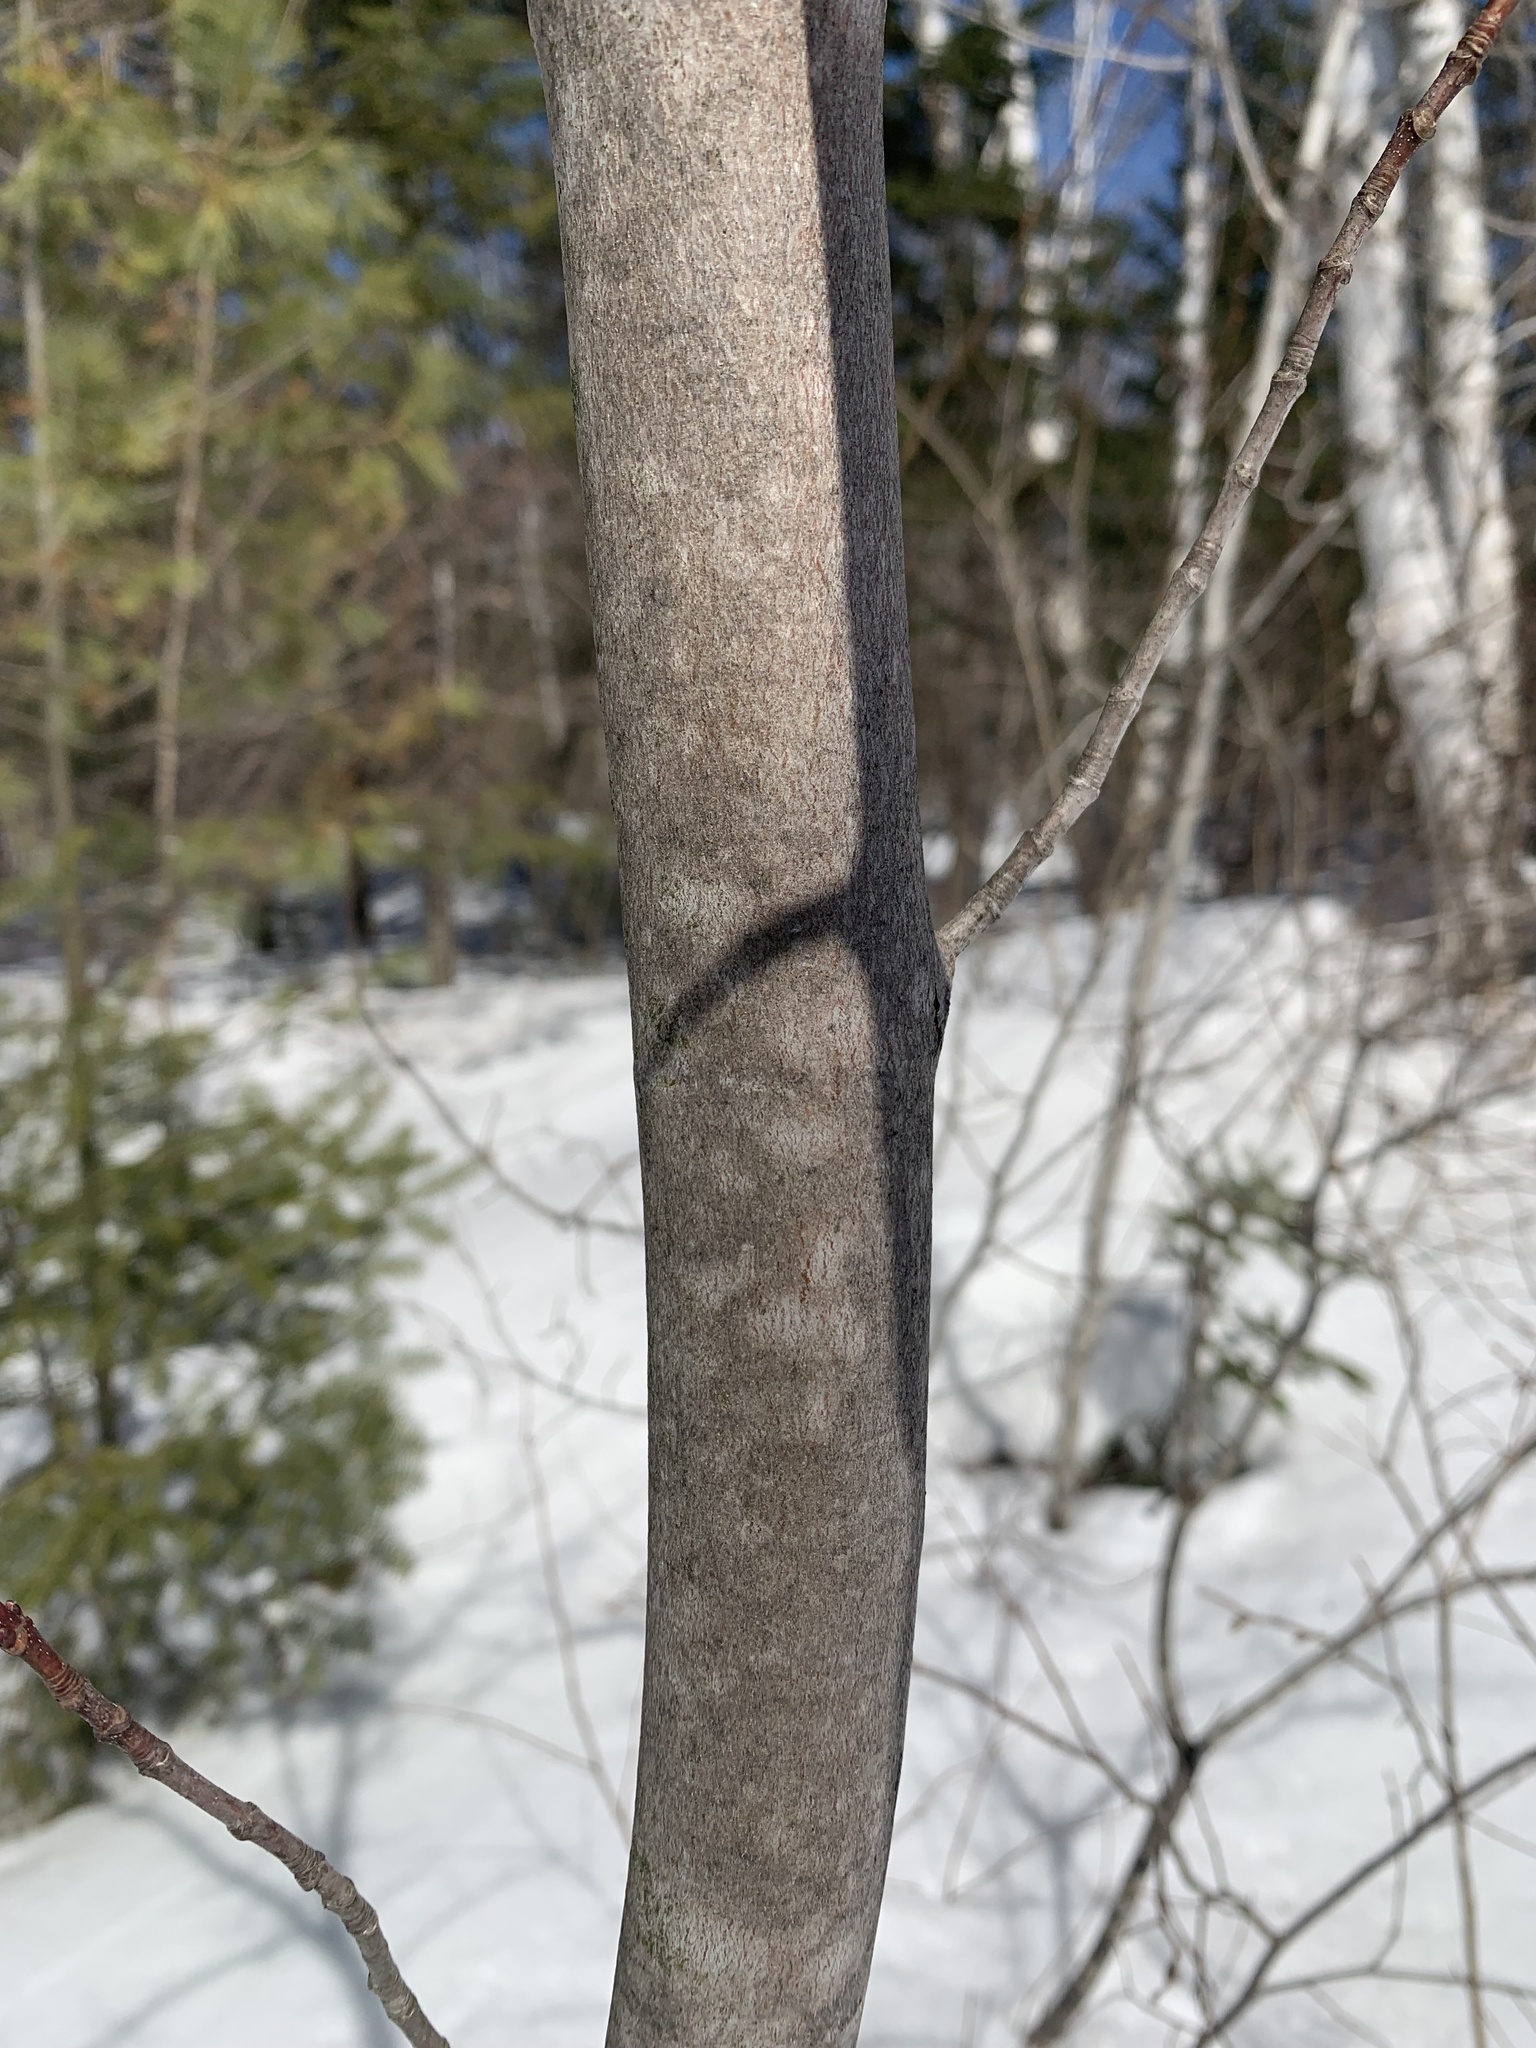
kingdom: Plantae
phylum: Tracheophyta
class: Magnoliopsida
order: Sapindales
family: Sapindaceae
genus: Acer
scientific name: Acer rubrum
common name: Red maple
